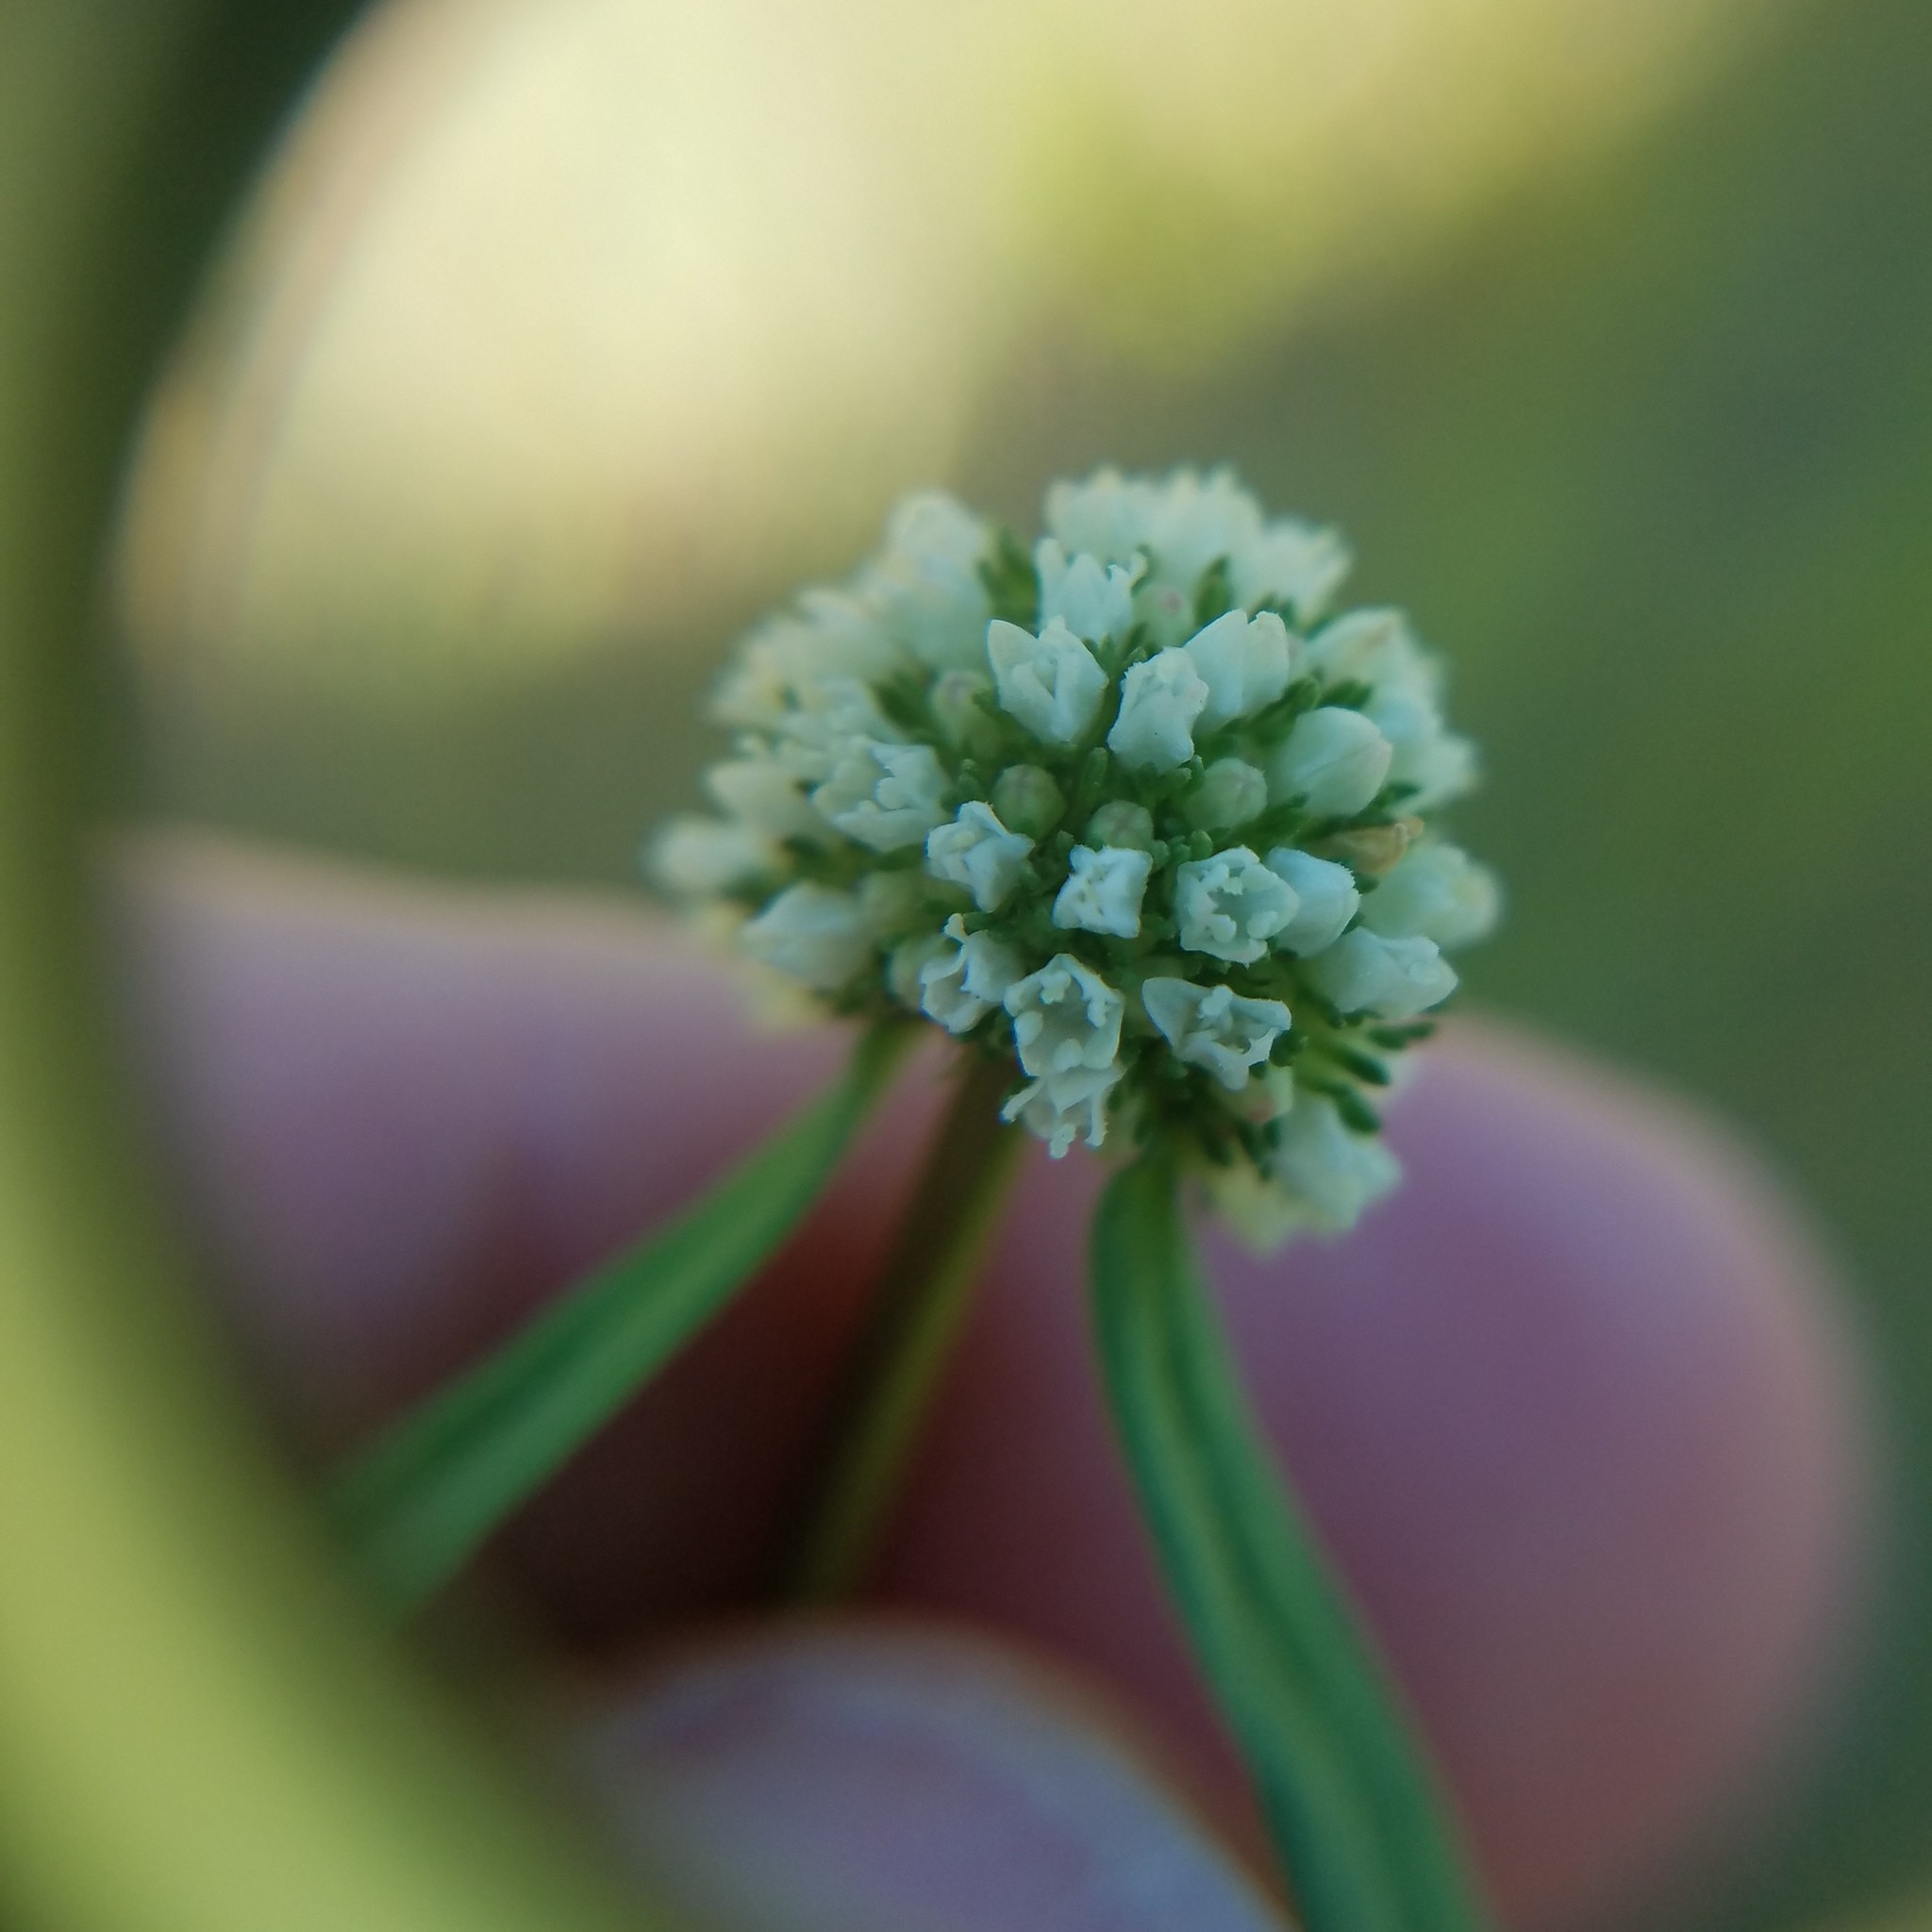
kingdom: Plantae
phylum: Tracheophyta
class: Magnoliopsida
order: Gentianales
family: Rubiaceae
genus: Spermacoce
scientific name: Spermacoce verticillata
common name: Shrubby false buttonweed
